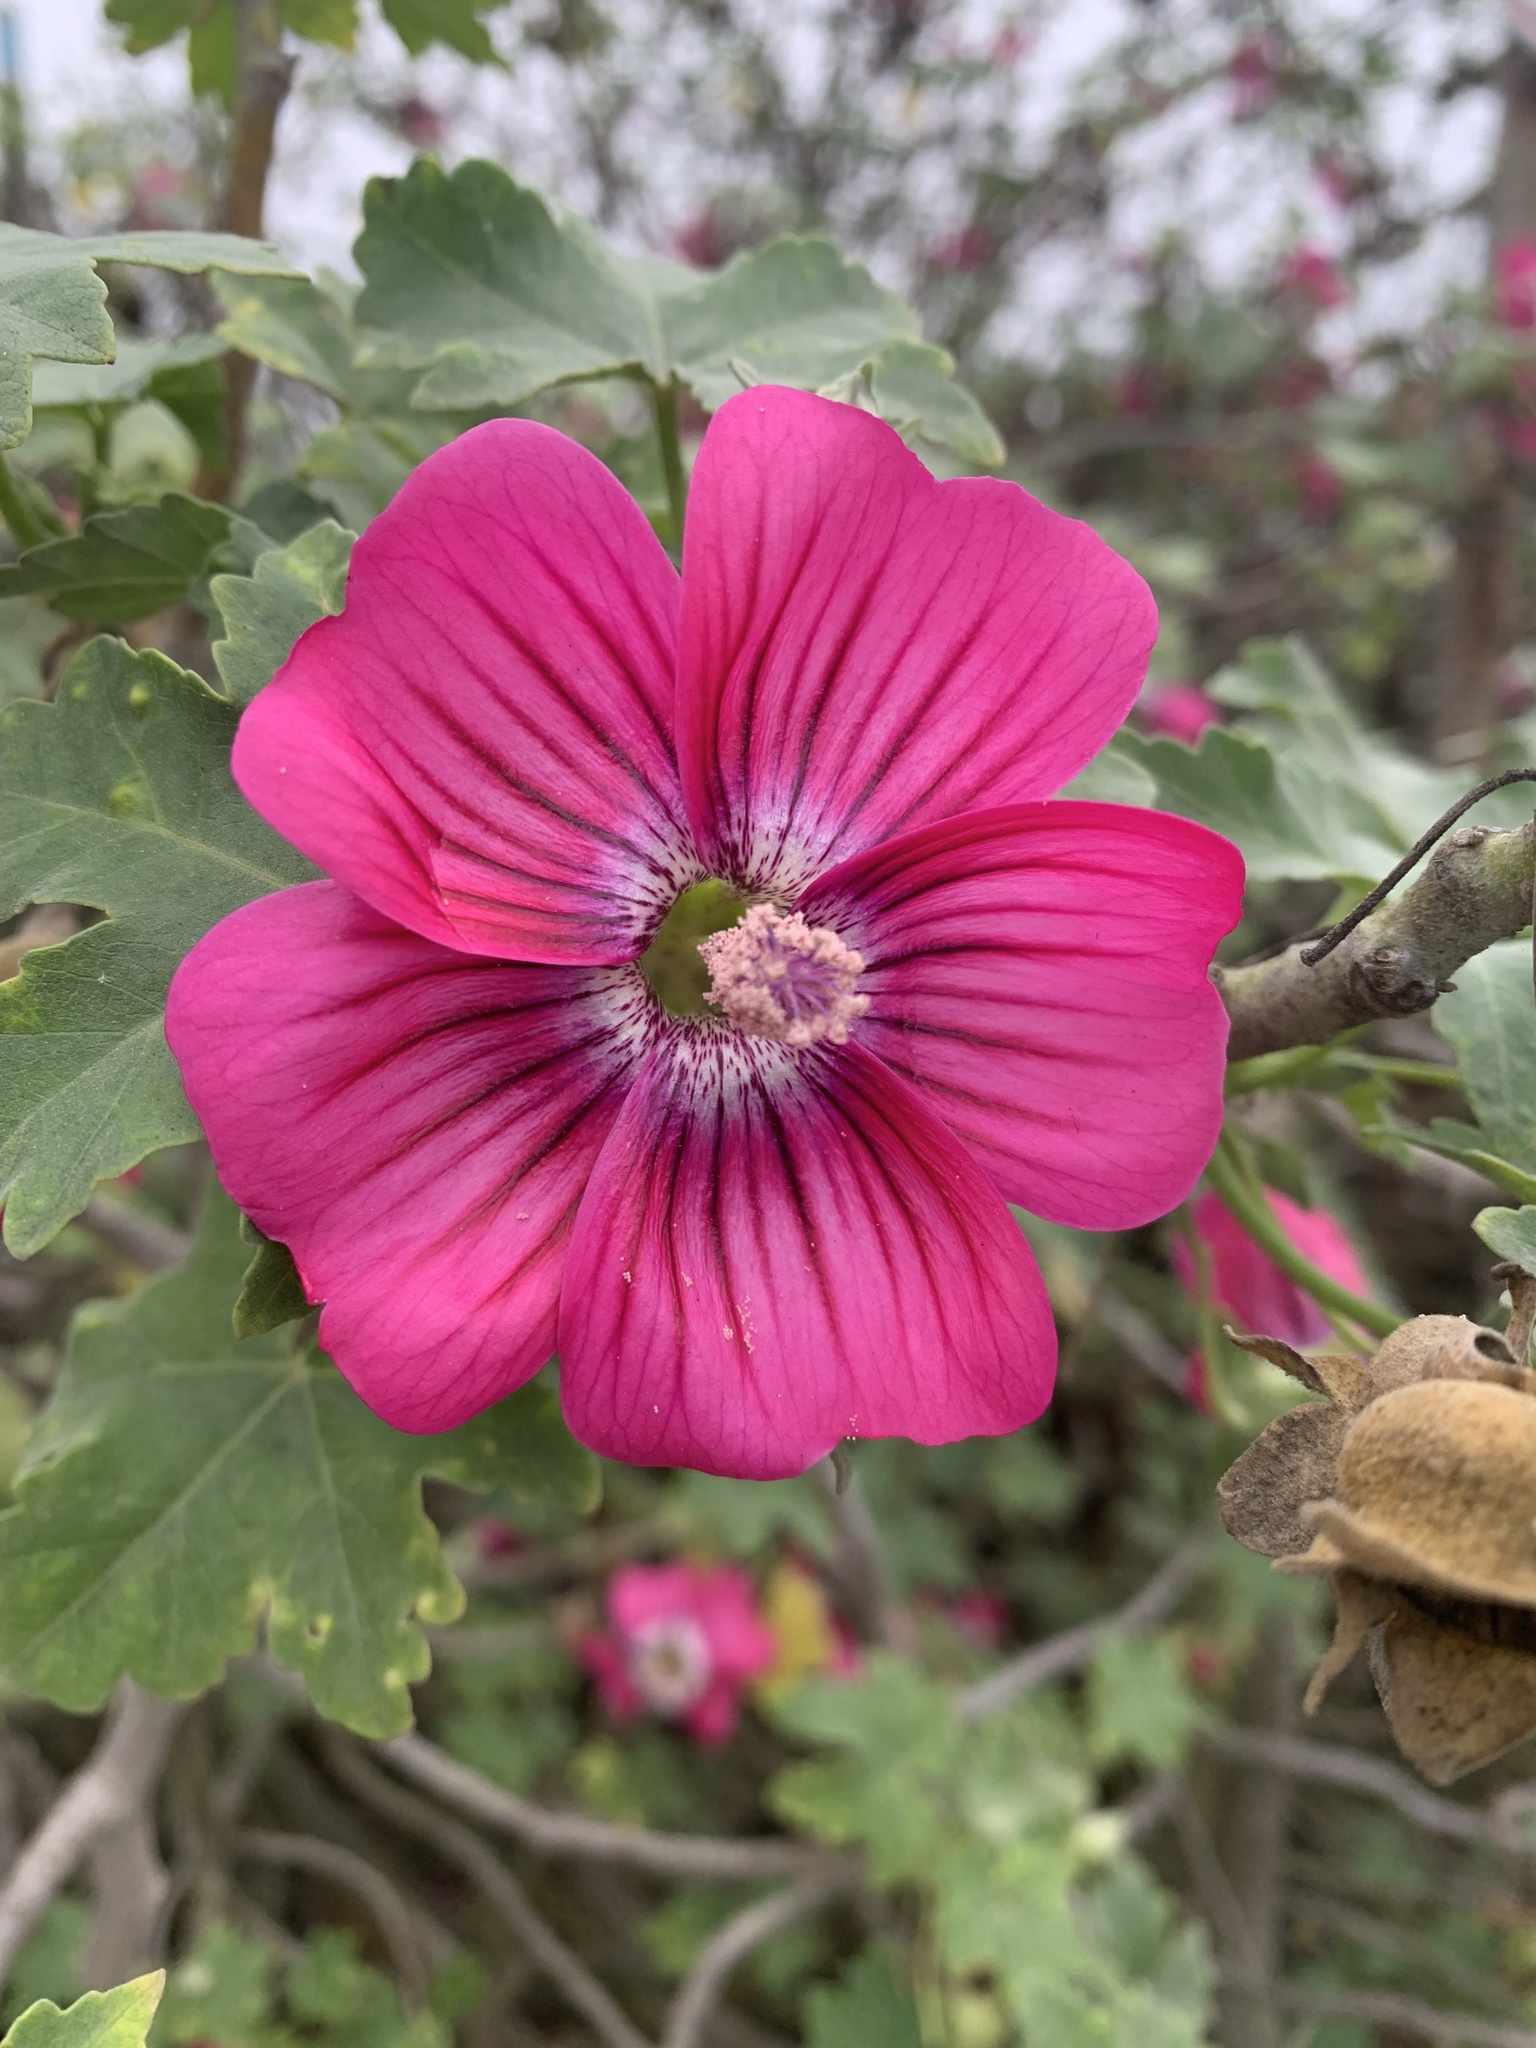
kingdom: Plantae
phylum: Tracheophyta
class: Magnoliopsida
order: Malvales
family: Malvaceae
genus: Malva
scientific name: Malva assurgentiflora
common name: Island mallow
